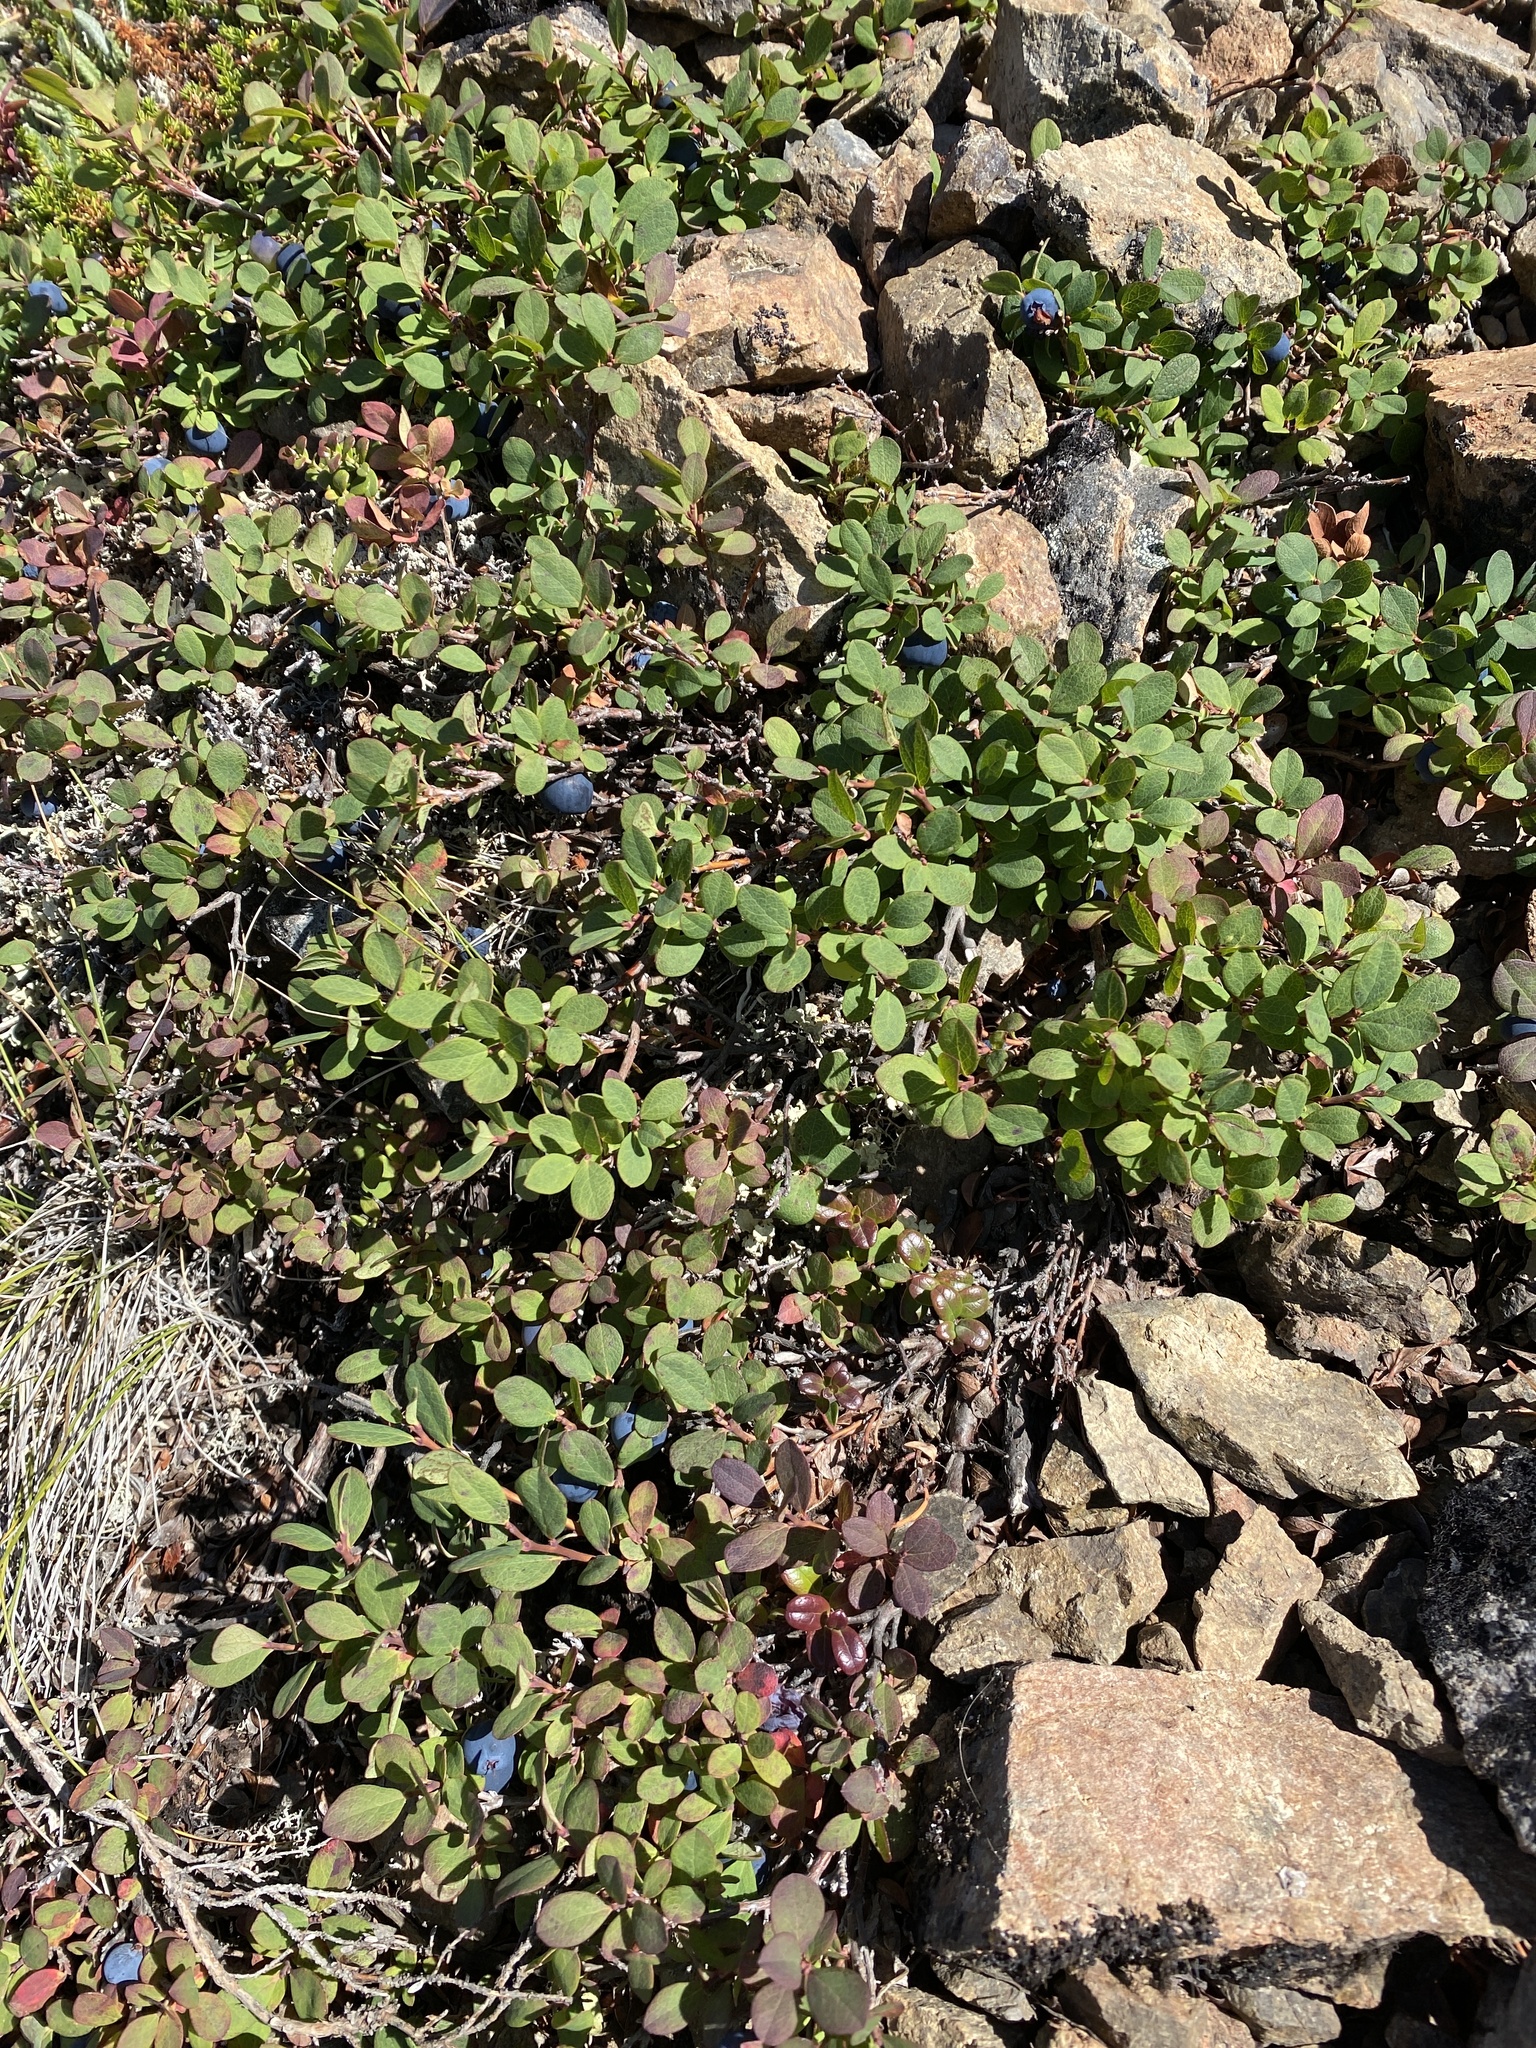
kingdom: Plantae
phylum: Tracheophyta
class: Magnoliopsida
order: Ericales
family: Ericaceae
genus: Vaccinium
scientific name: Vaccinium uliginosum
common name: Bog bilberry
